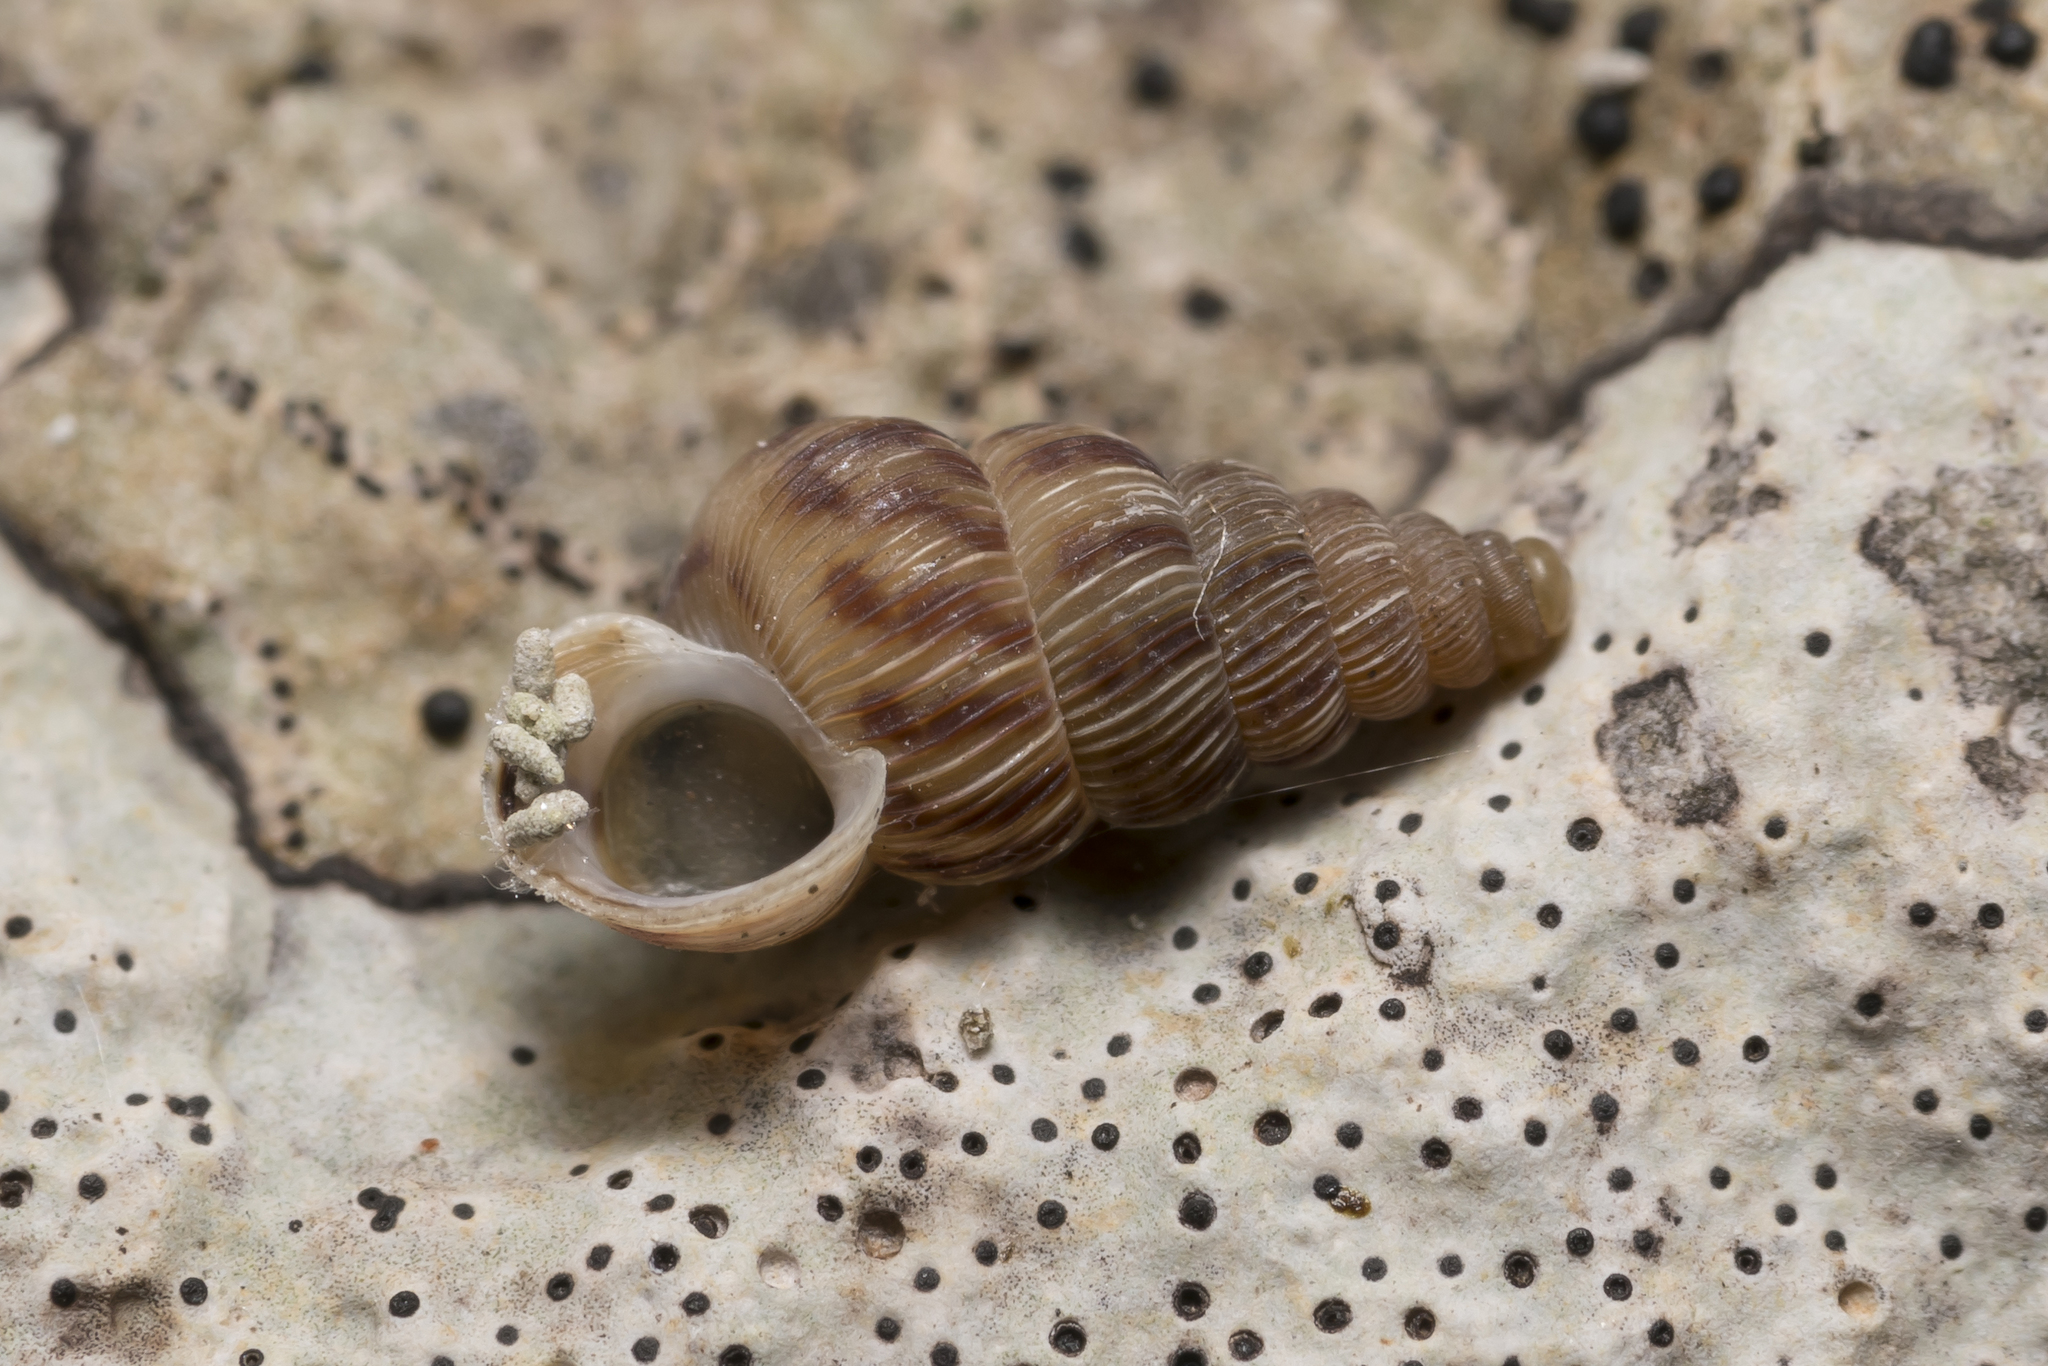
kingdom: Animalia
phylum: Mollusca
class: Gastropoda
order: Architaenioglossa
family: Cochlostomatidae
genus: Cochlostoma
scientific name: Cochlostoma septemspirale
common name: Seven-whorl snail
